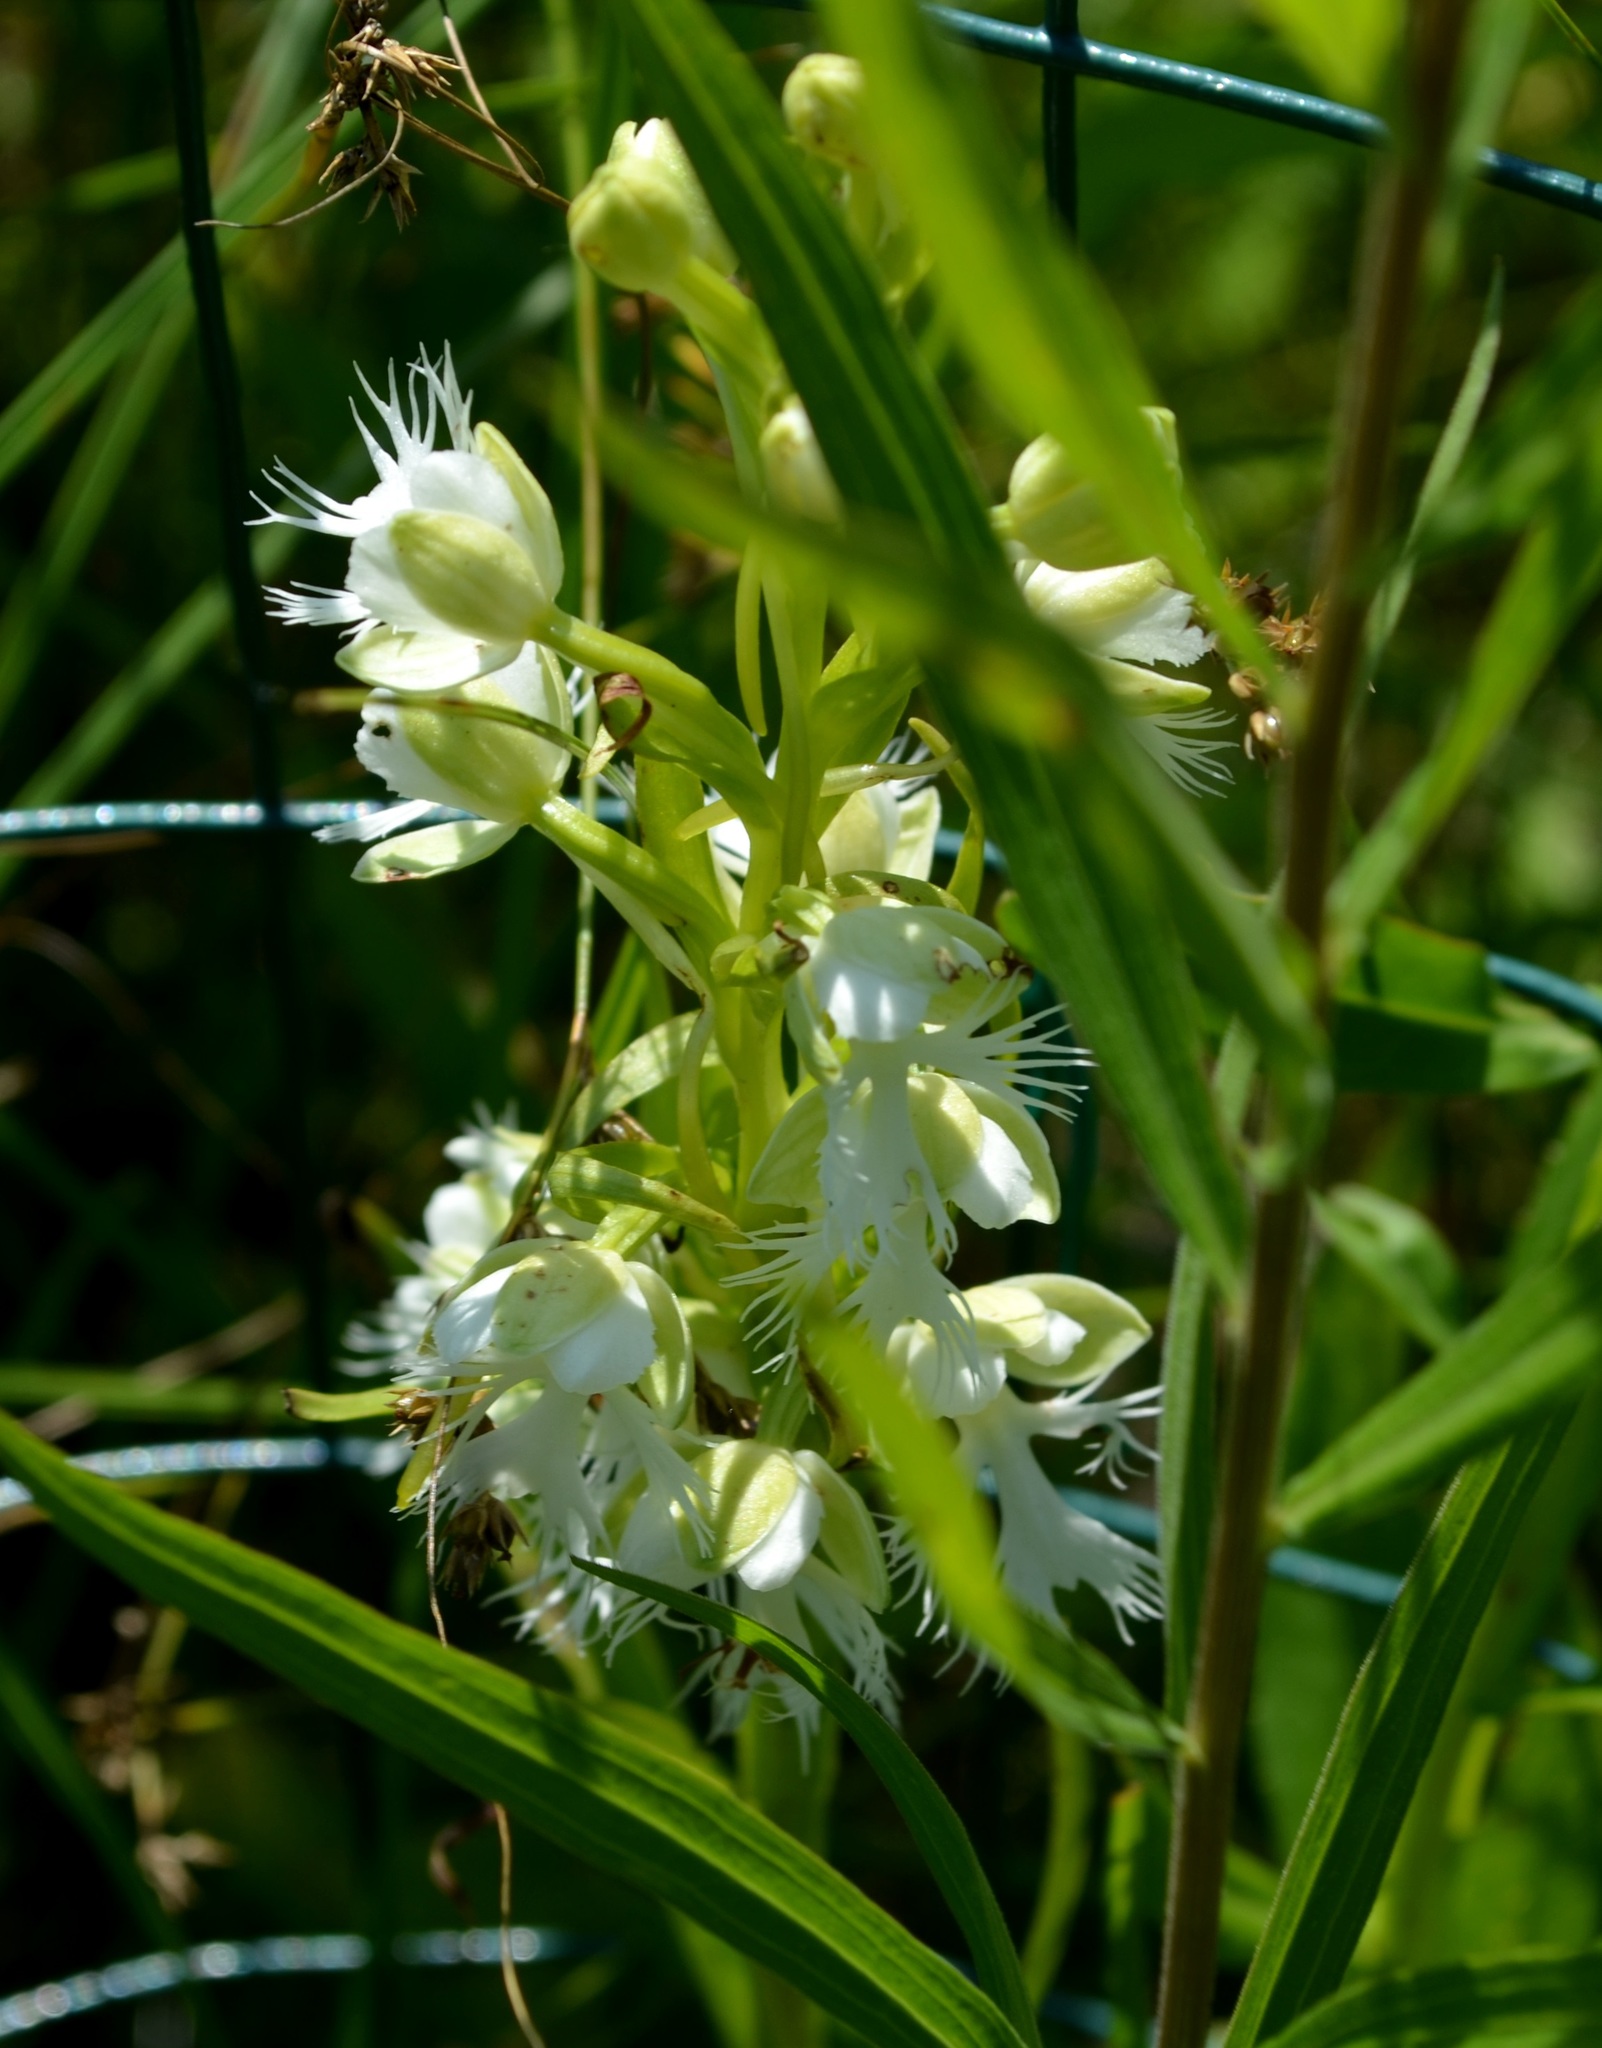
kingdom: Plantae
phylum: Tracheophyta
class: Liliopsida
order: Asparagales
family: Orchidaceae
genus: Platanthera
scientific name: Platanthera leucophaea
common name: Eastern prairie white-fringed orchid
